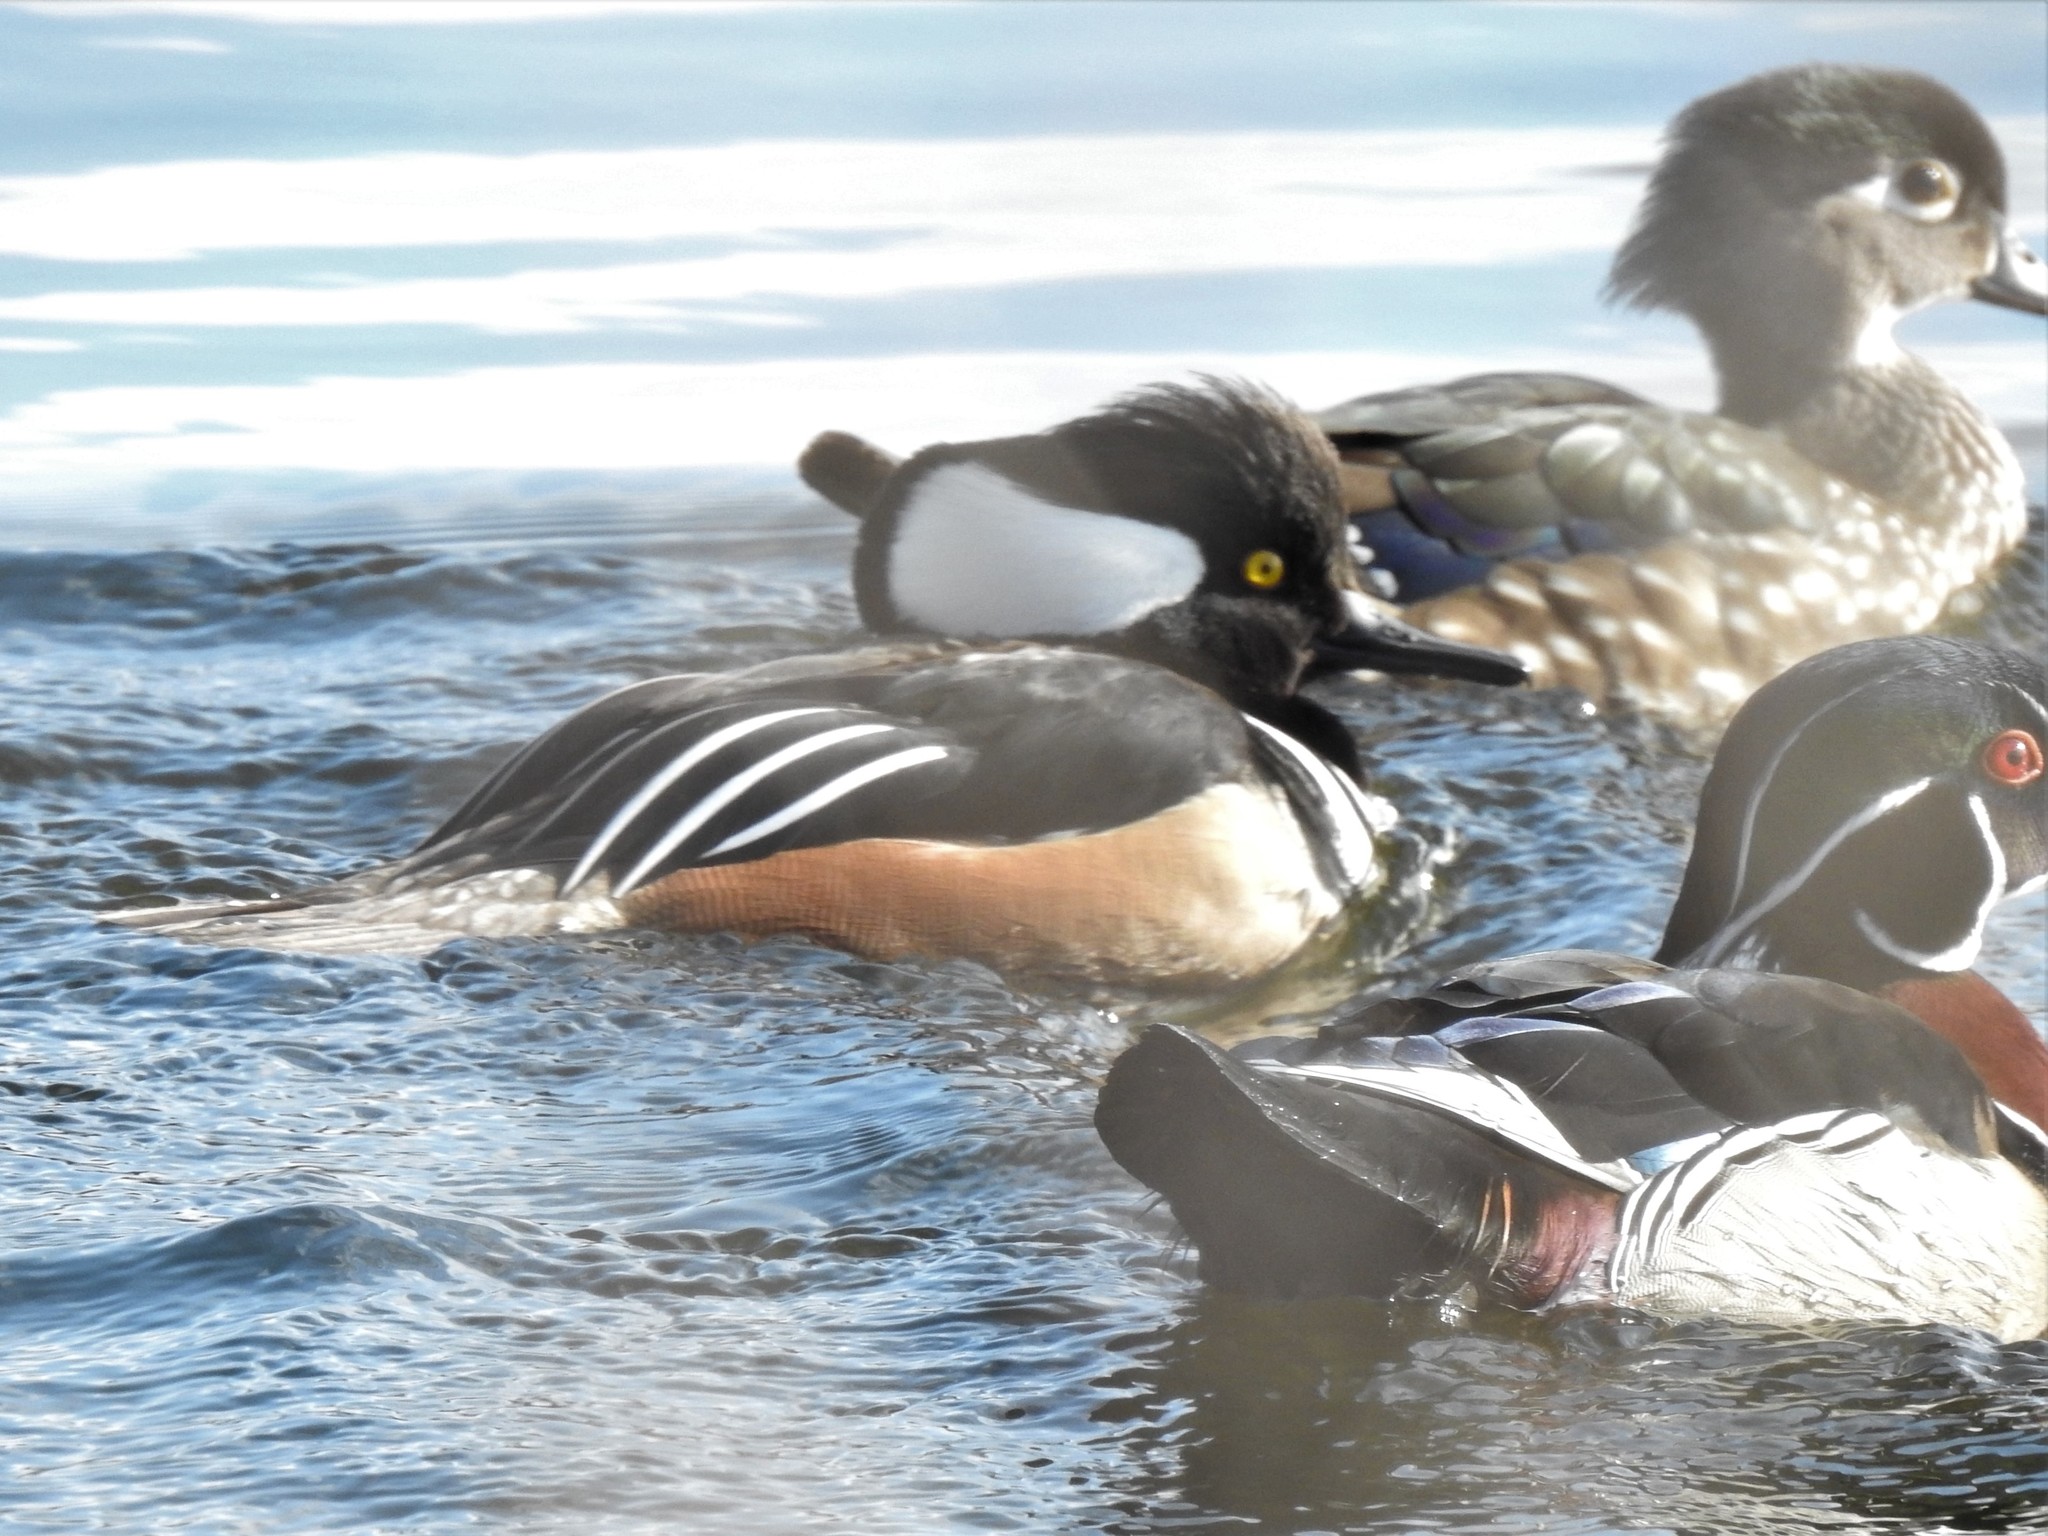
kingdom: Animalia
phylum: Chordata
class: Aves
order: Anseriformes
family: Anatidae
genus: Lophodytes
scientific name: Lophodytes cucullatus
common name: Hooded merganser
